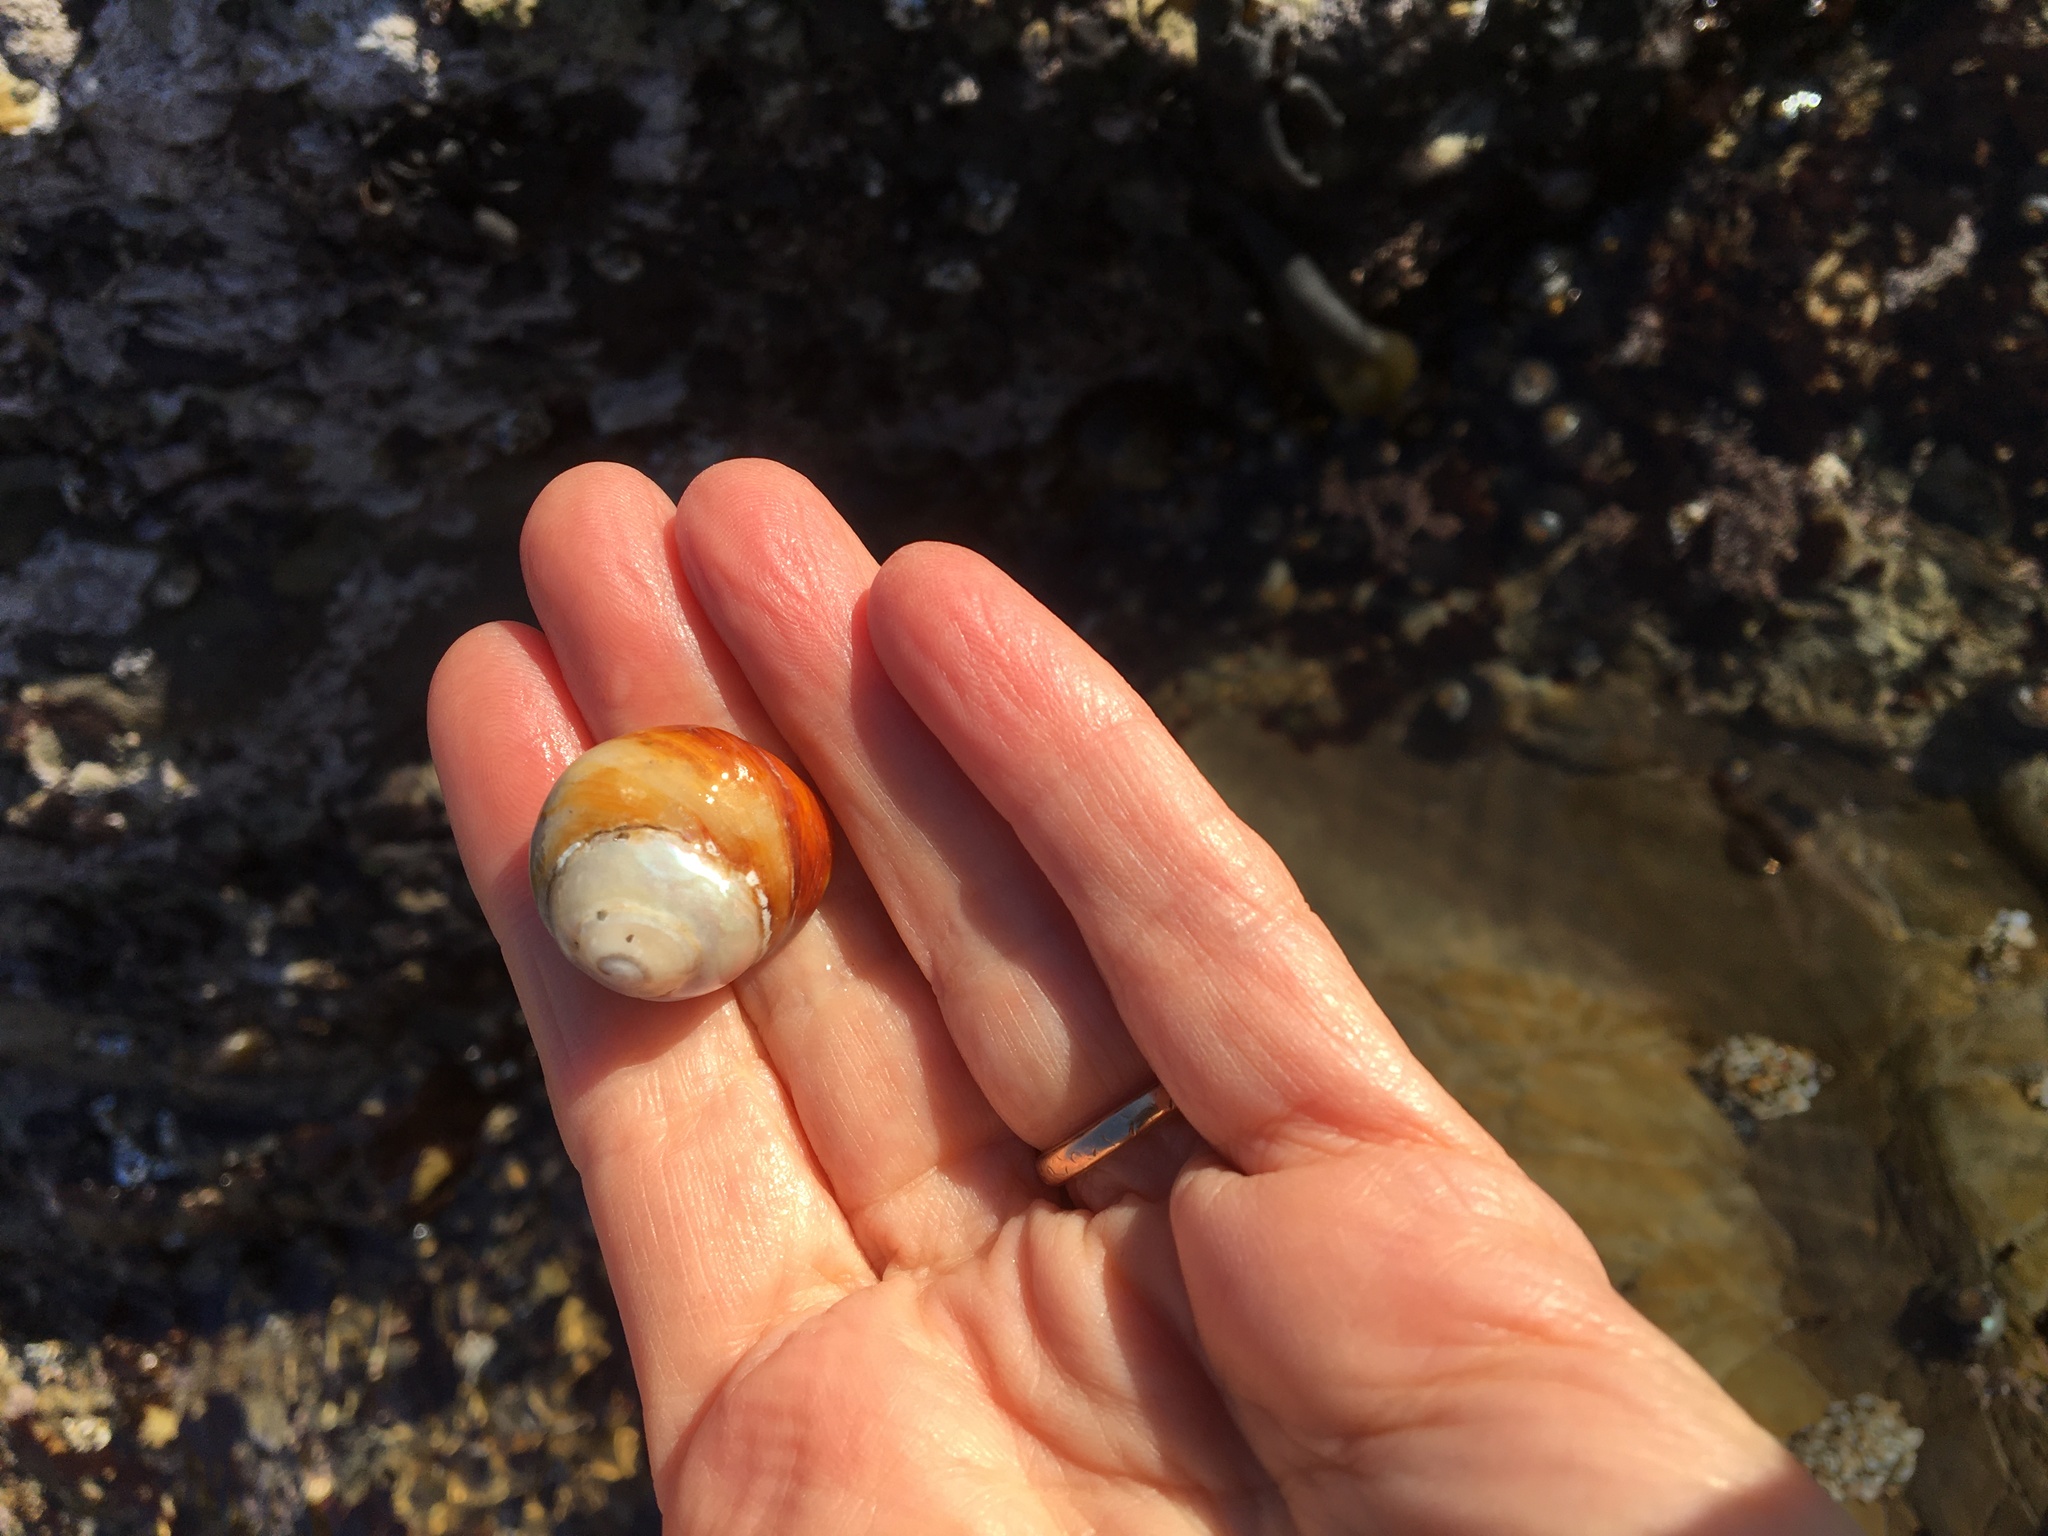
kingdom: Animalia
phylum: Mollusca
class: Gastropoda
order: Trochida
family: Tegulidae
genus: Tegula
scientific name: Tegula brunnea
